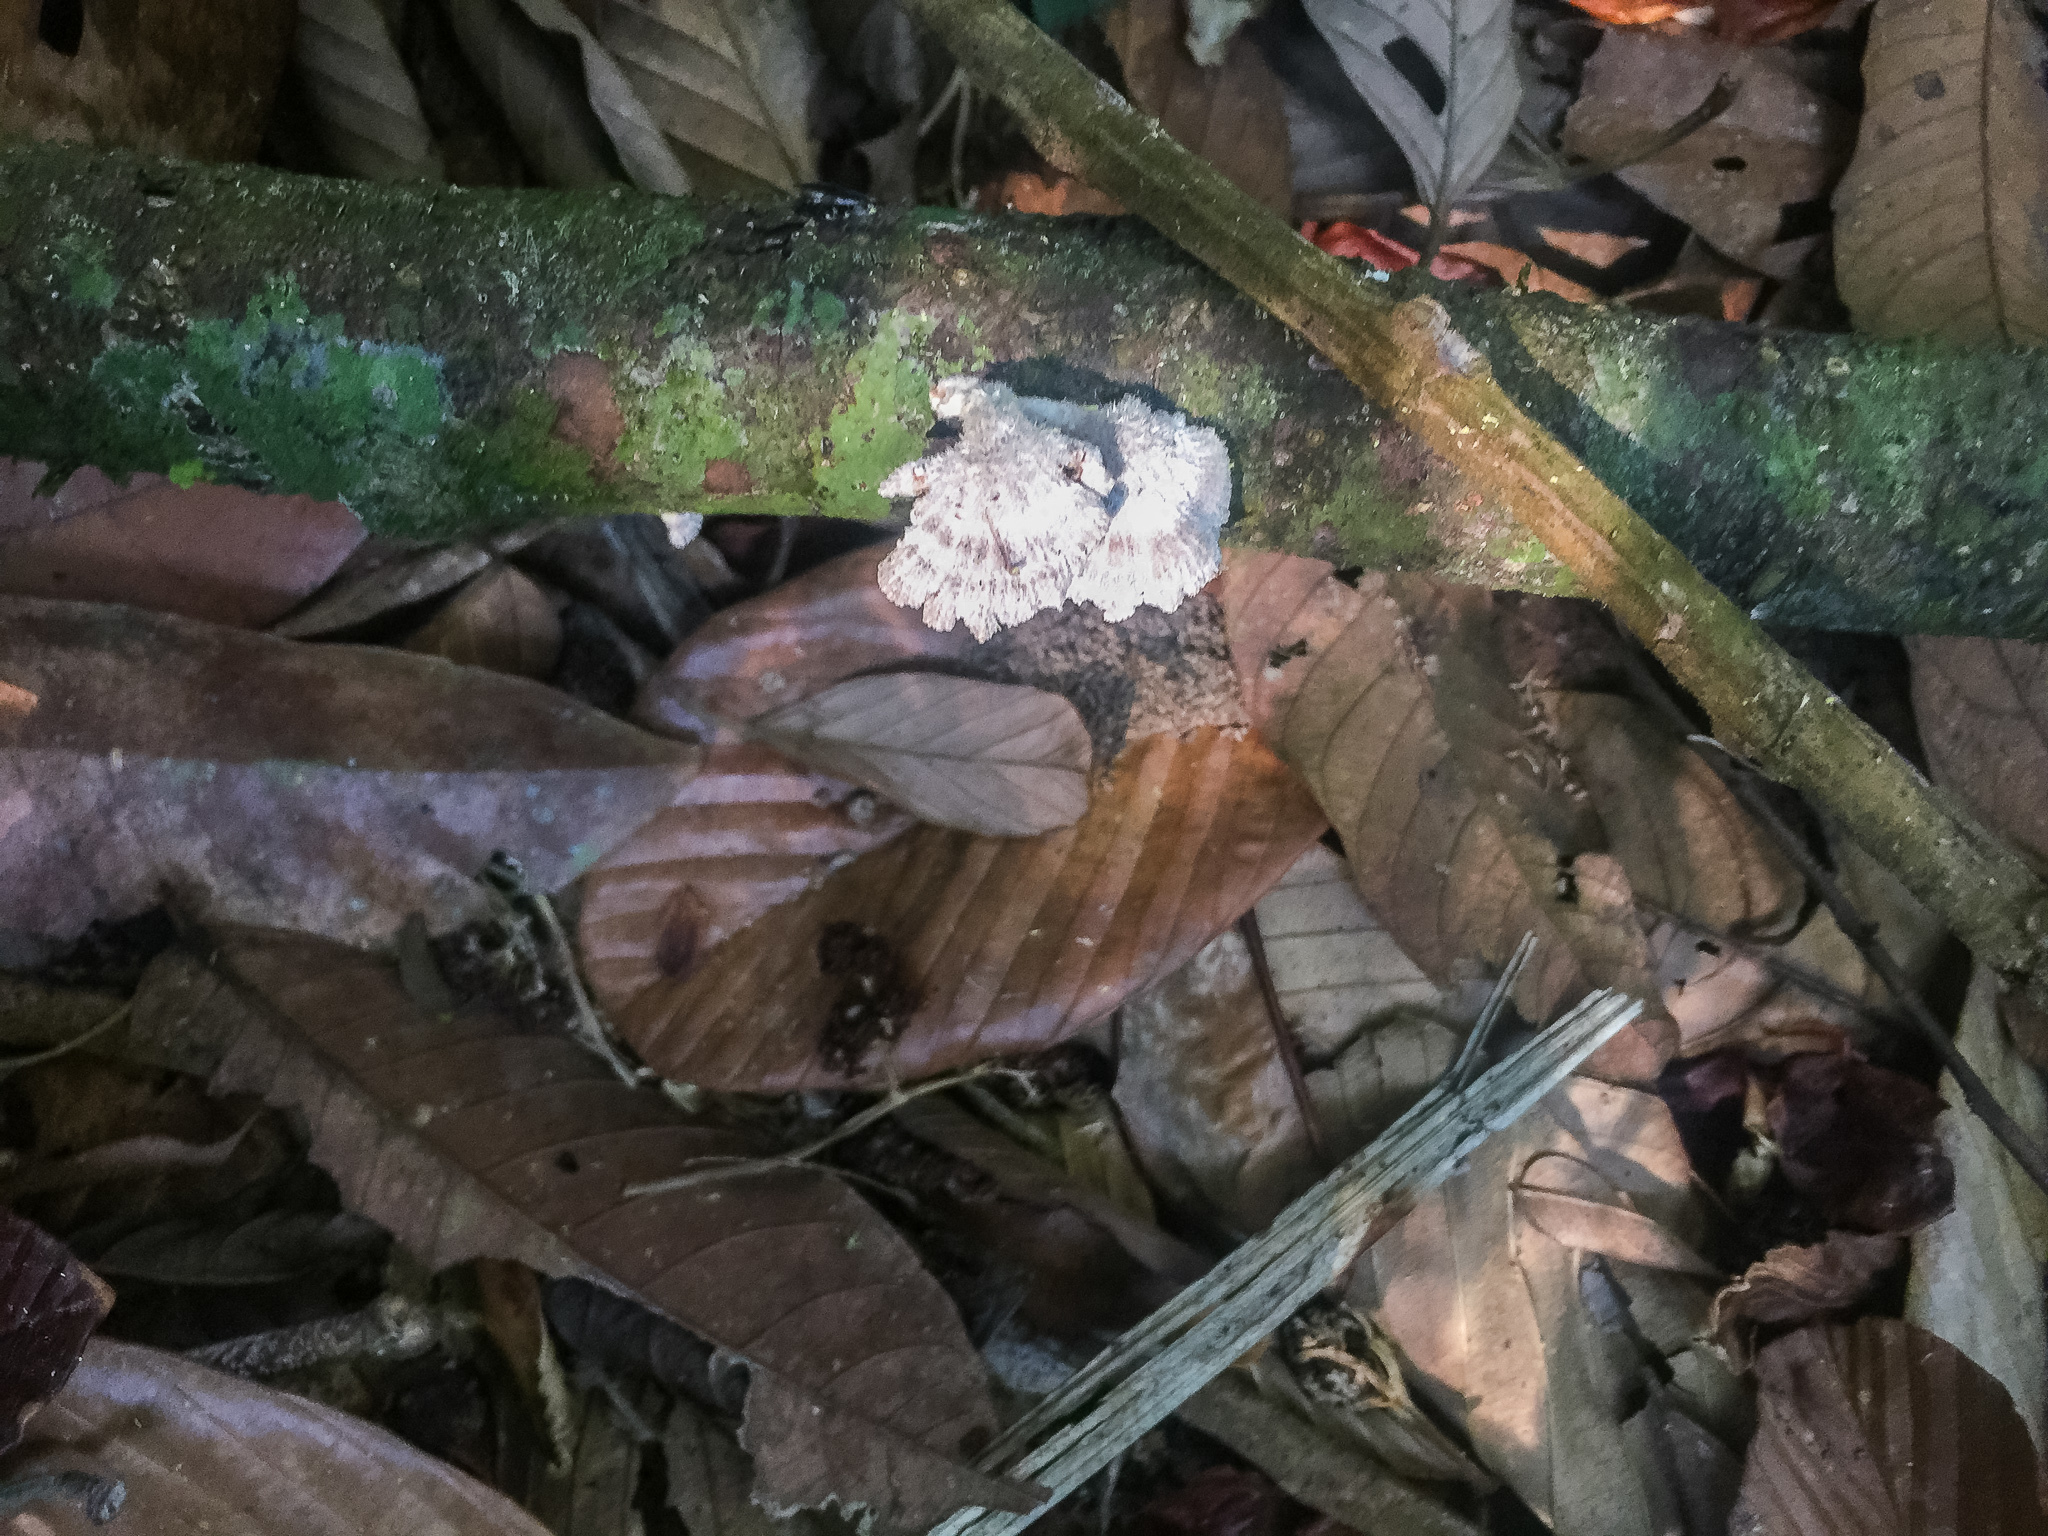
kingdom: Fungi
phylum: Basidiomycota
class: Agaricomycetes
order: Agaricales
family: Schizophyllaceae
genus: Schizophyllum
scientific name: Schizophyllum commune
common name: Common porecrust
